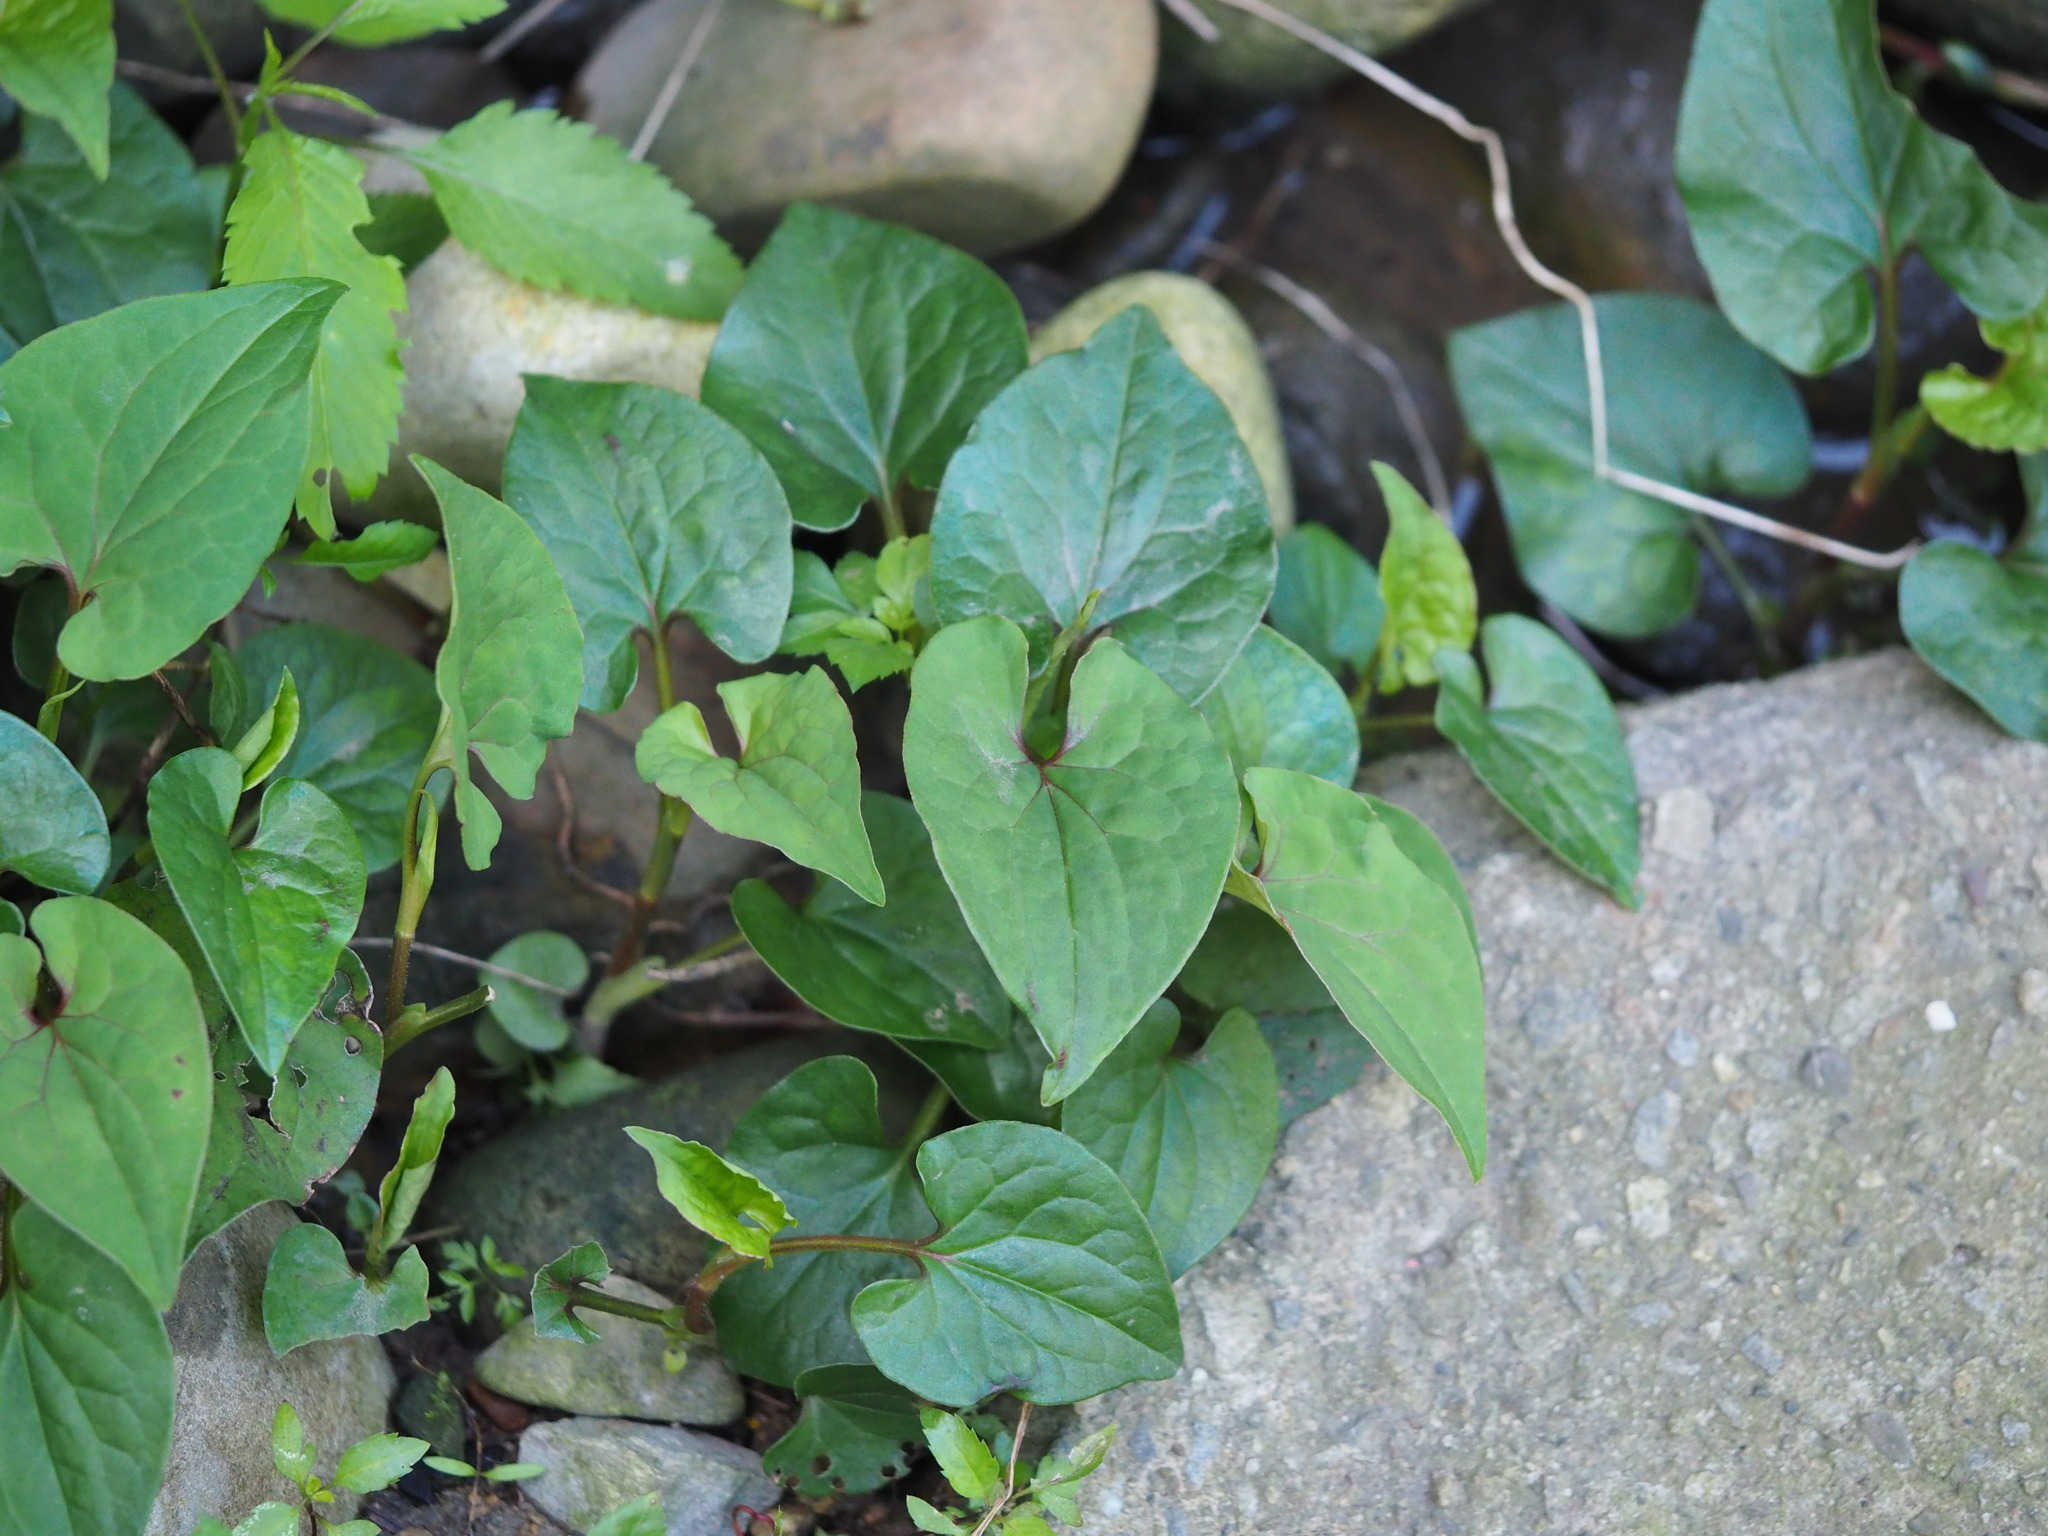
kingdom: Plantae
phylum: Tracheophyta
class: Magnoliopsida
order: Piperales
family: Saururaceae
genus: Houttuynia
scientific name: Houttuynia cordata
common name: Chameleon
